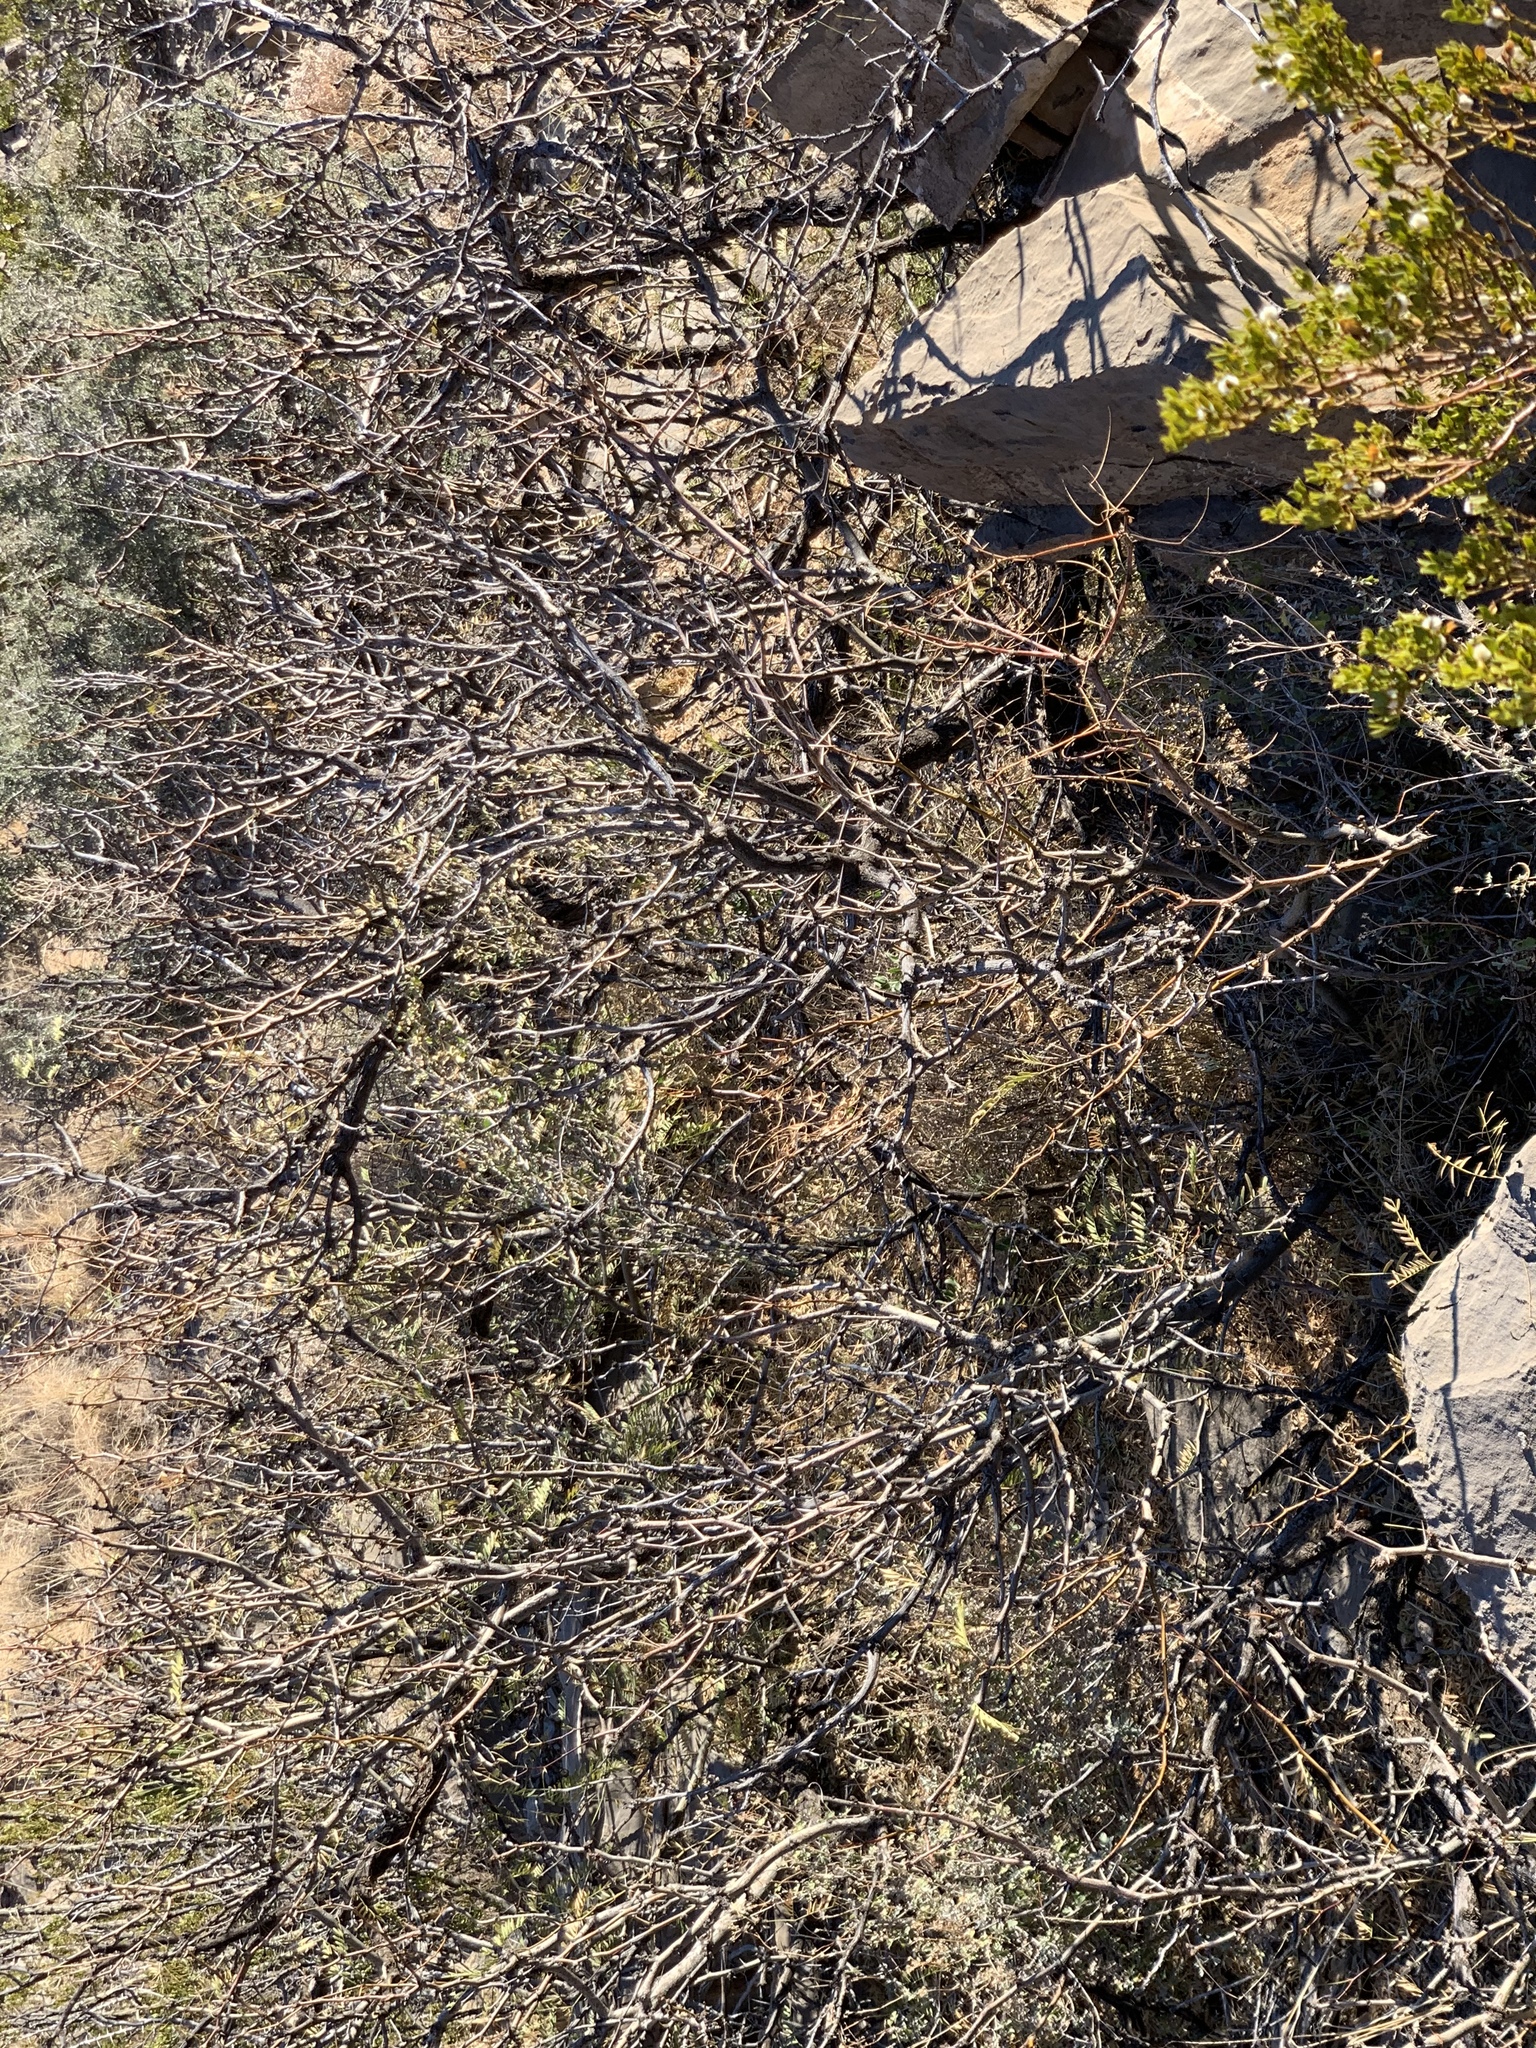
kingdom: Plantae
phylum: Tracheophyta
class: Magnoliopsida
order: Fabales
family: Fabaceae
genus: Prosopis
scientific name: Prosopis glandulosa
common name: Honey mesquite
